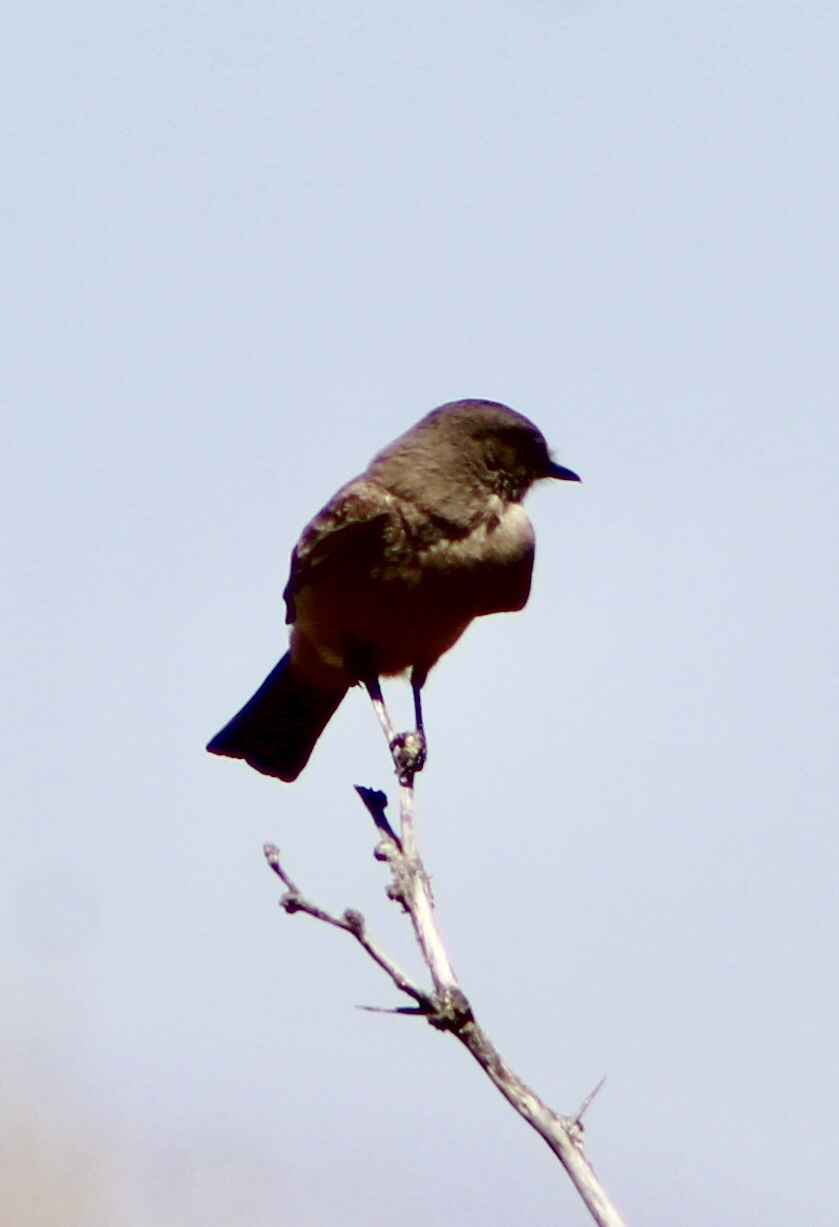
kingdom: Animalia
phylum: Chordata
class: Aves
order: Passeriformes
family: Tyrannidae
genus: Sayornis
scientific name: Sayornis saya
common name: Say's phoebe
